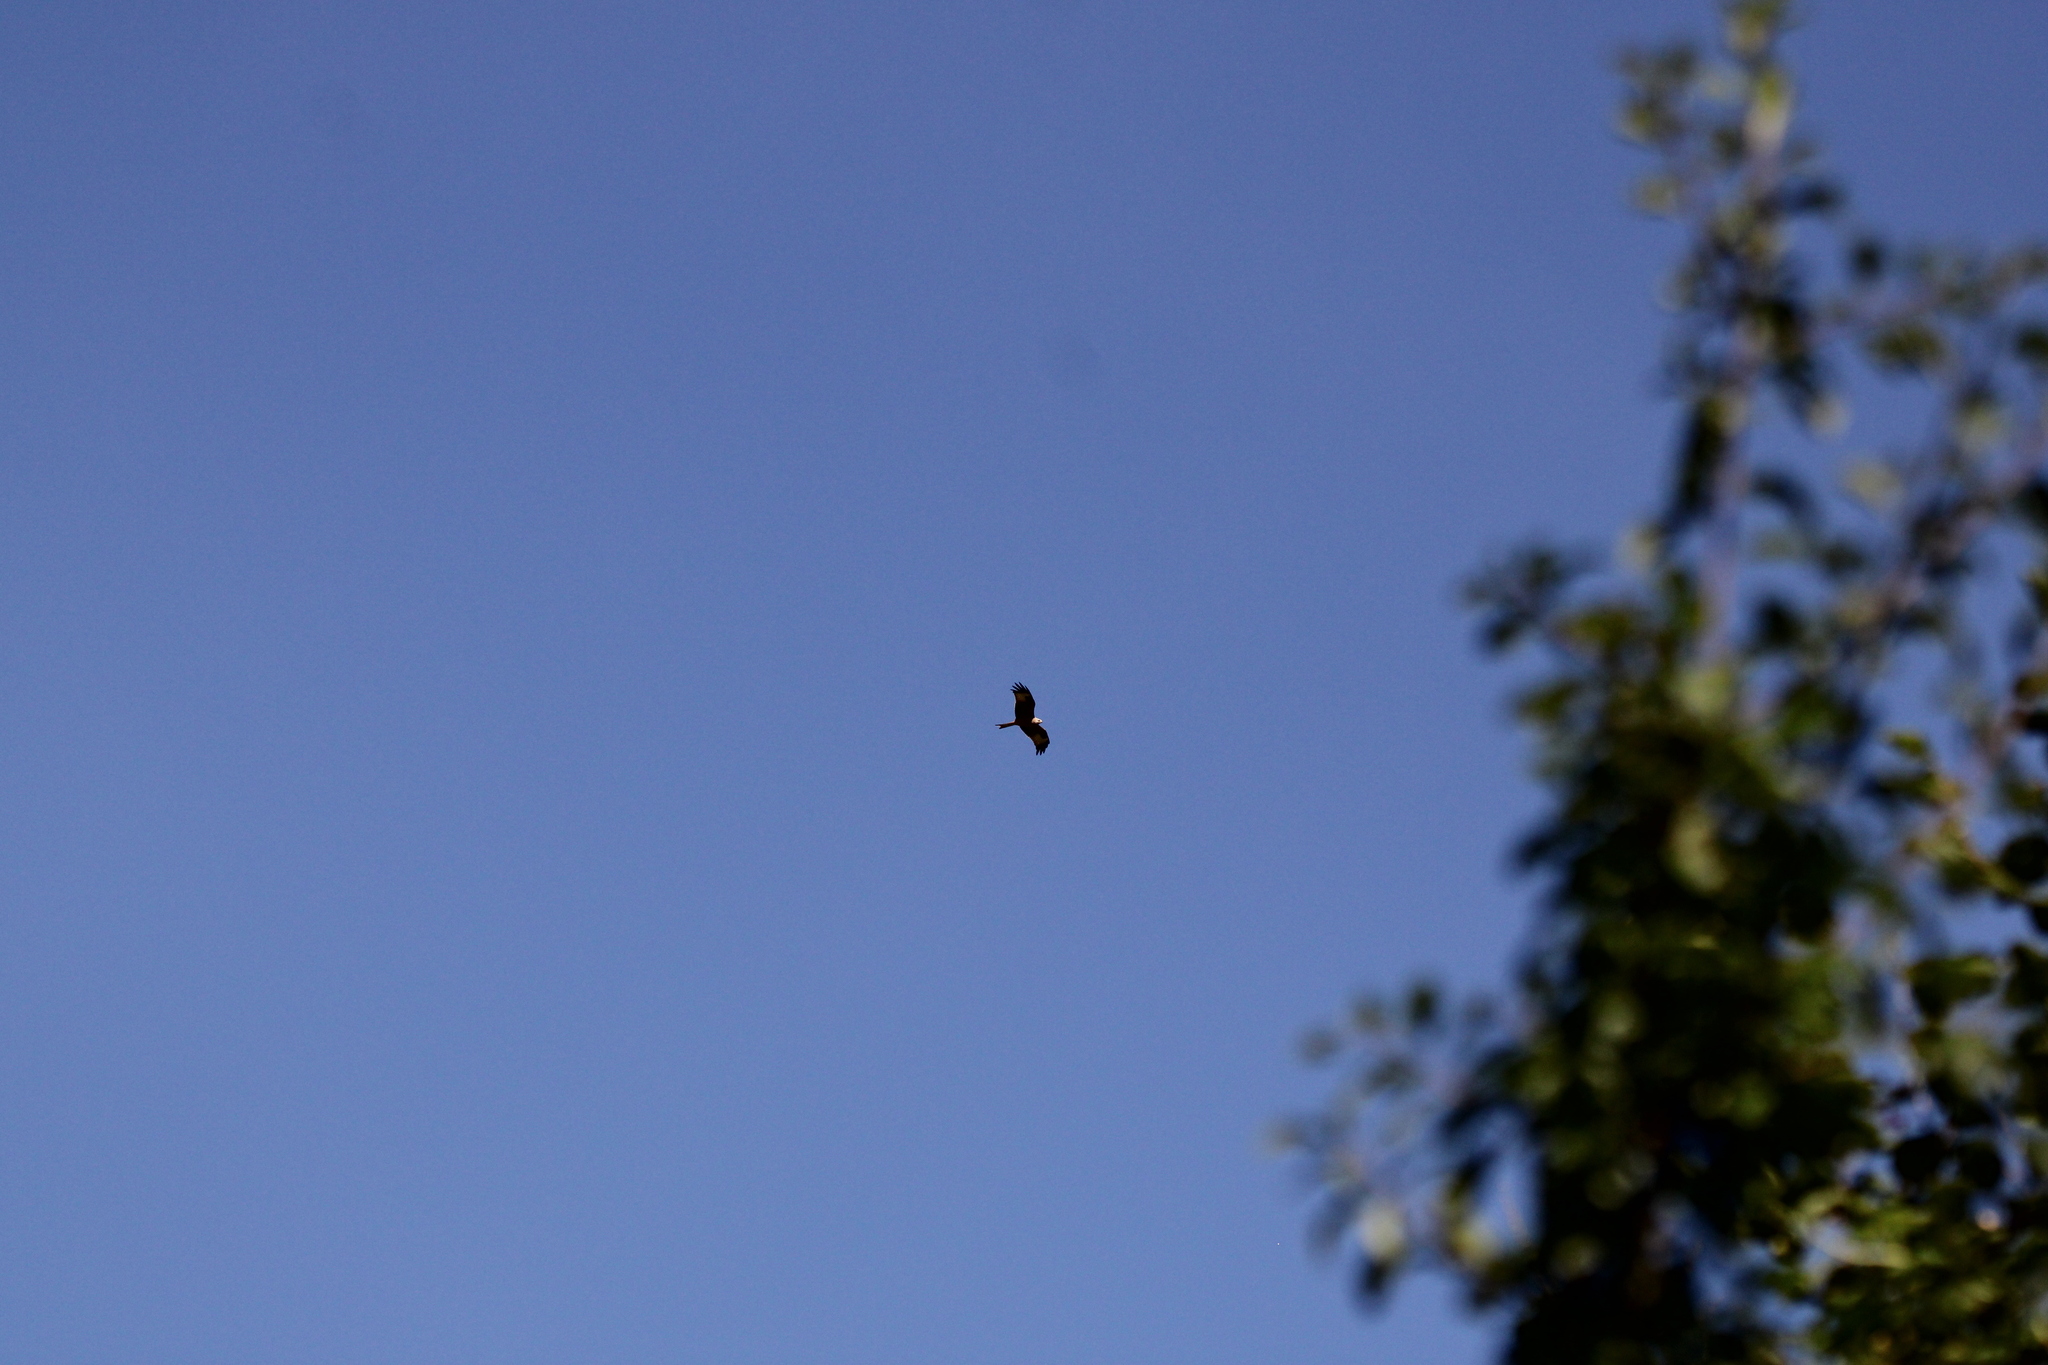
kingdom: Animalia
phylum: Chordata
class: Aves
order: Accipitriformes
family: Accipitridae
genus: Milvus
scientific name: Milvus milvus
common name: Red kite
